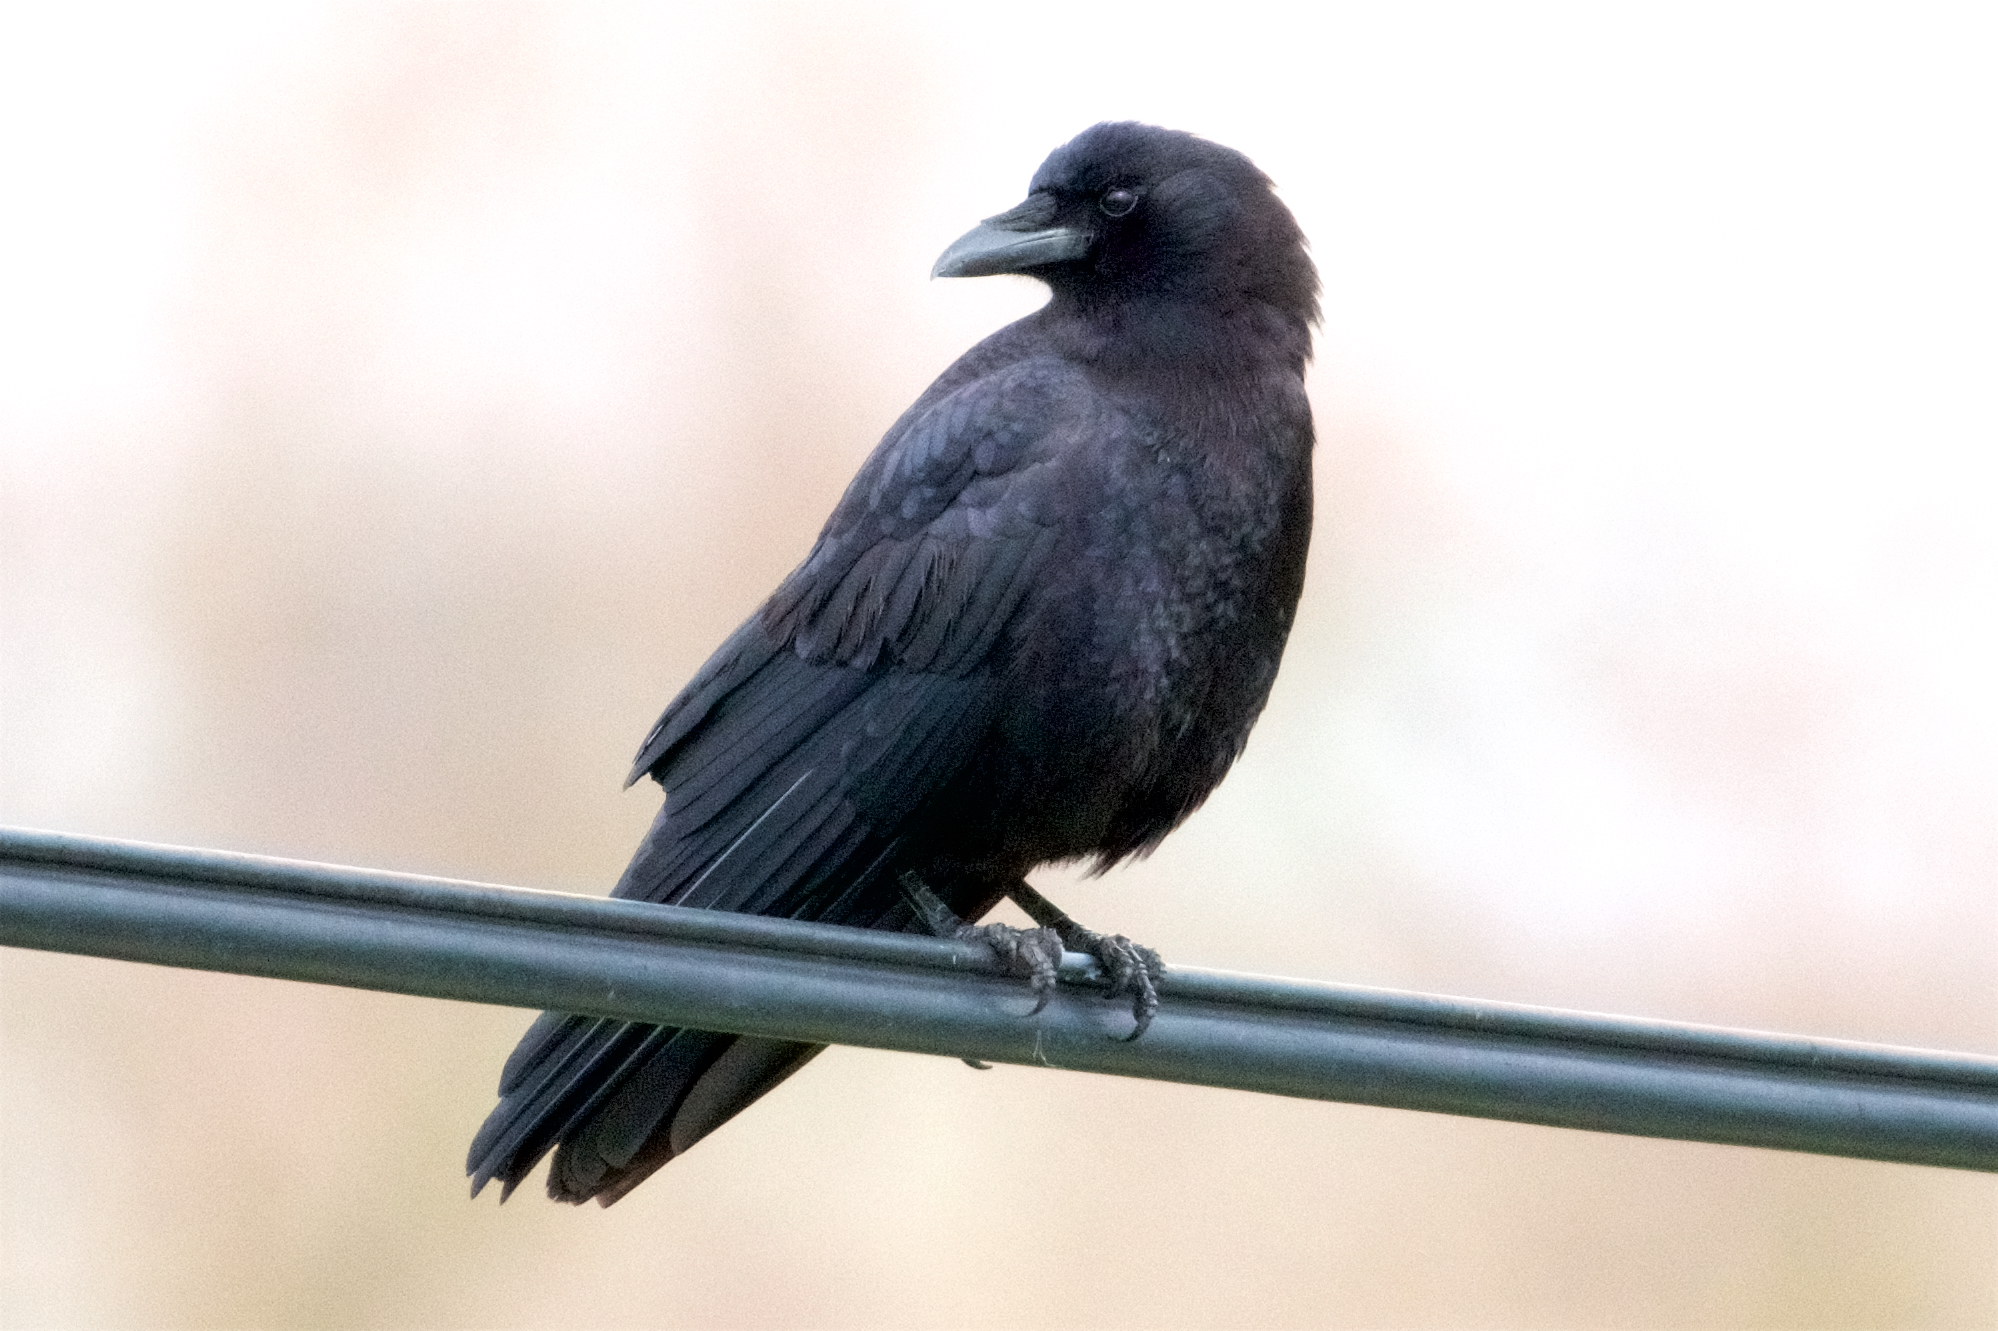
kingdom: Animalia
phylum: Chordata
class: Aves
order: Passeriformes
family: Corvidae
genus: Corvus
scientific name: Corvus brachyrhynchos
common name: American crow
